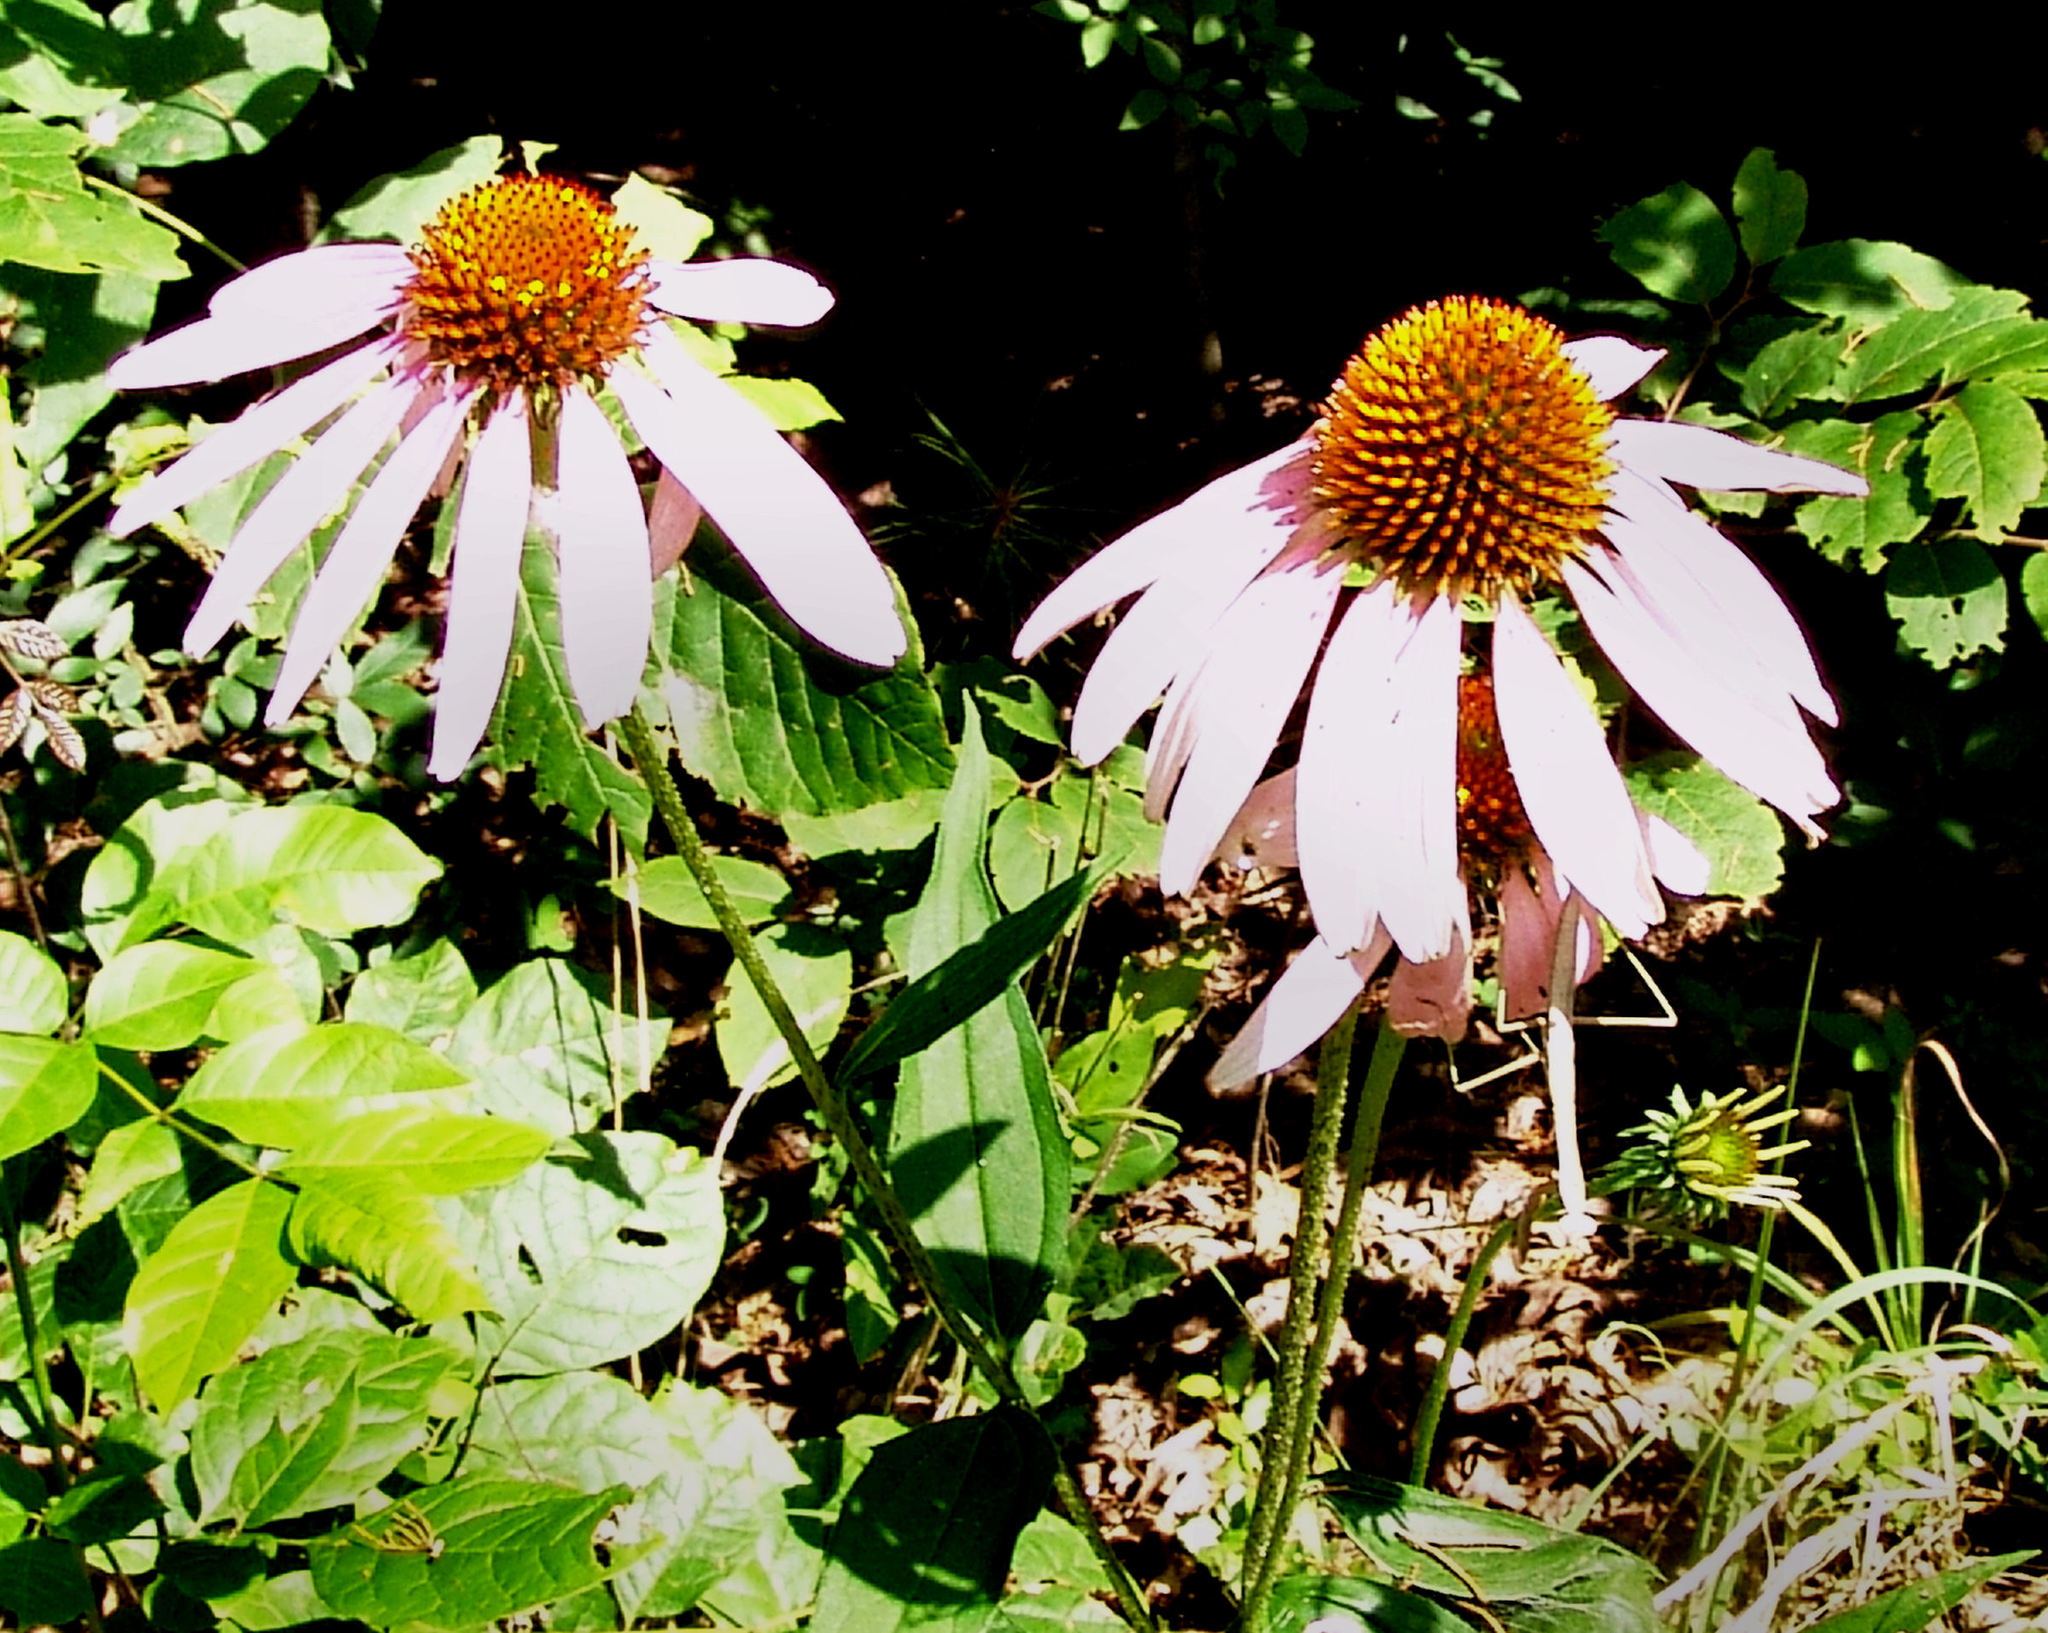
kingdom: Plantae
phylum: Tracheophyta
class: Magnoliopsida
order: Asterales
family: Asteraceae
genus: Echinacea
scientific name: Echinacea purpurea
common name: Broad-leaved purple coneflower
